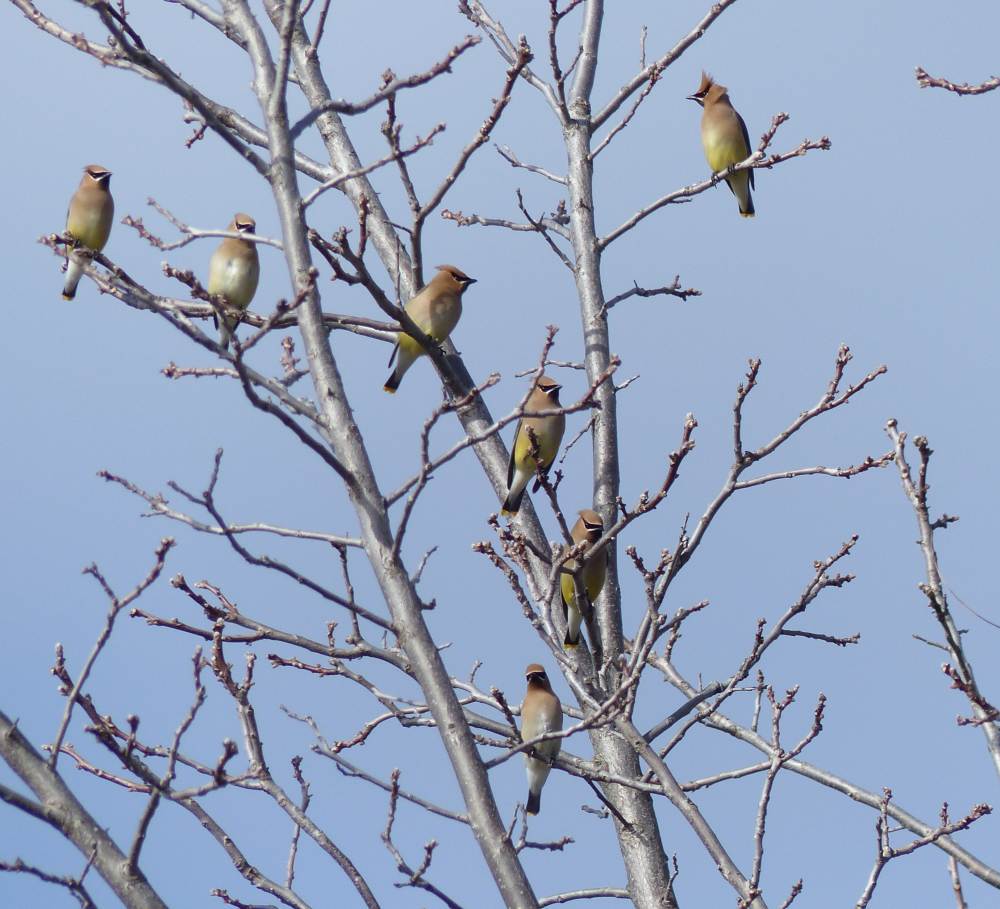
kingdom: Animalia
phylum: Chordata
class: Aves
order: Passeriformes
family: Bombycillidae
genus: Bombycilla
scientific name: Bombycilla cedrorum
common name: Cedar waxwing
